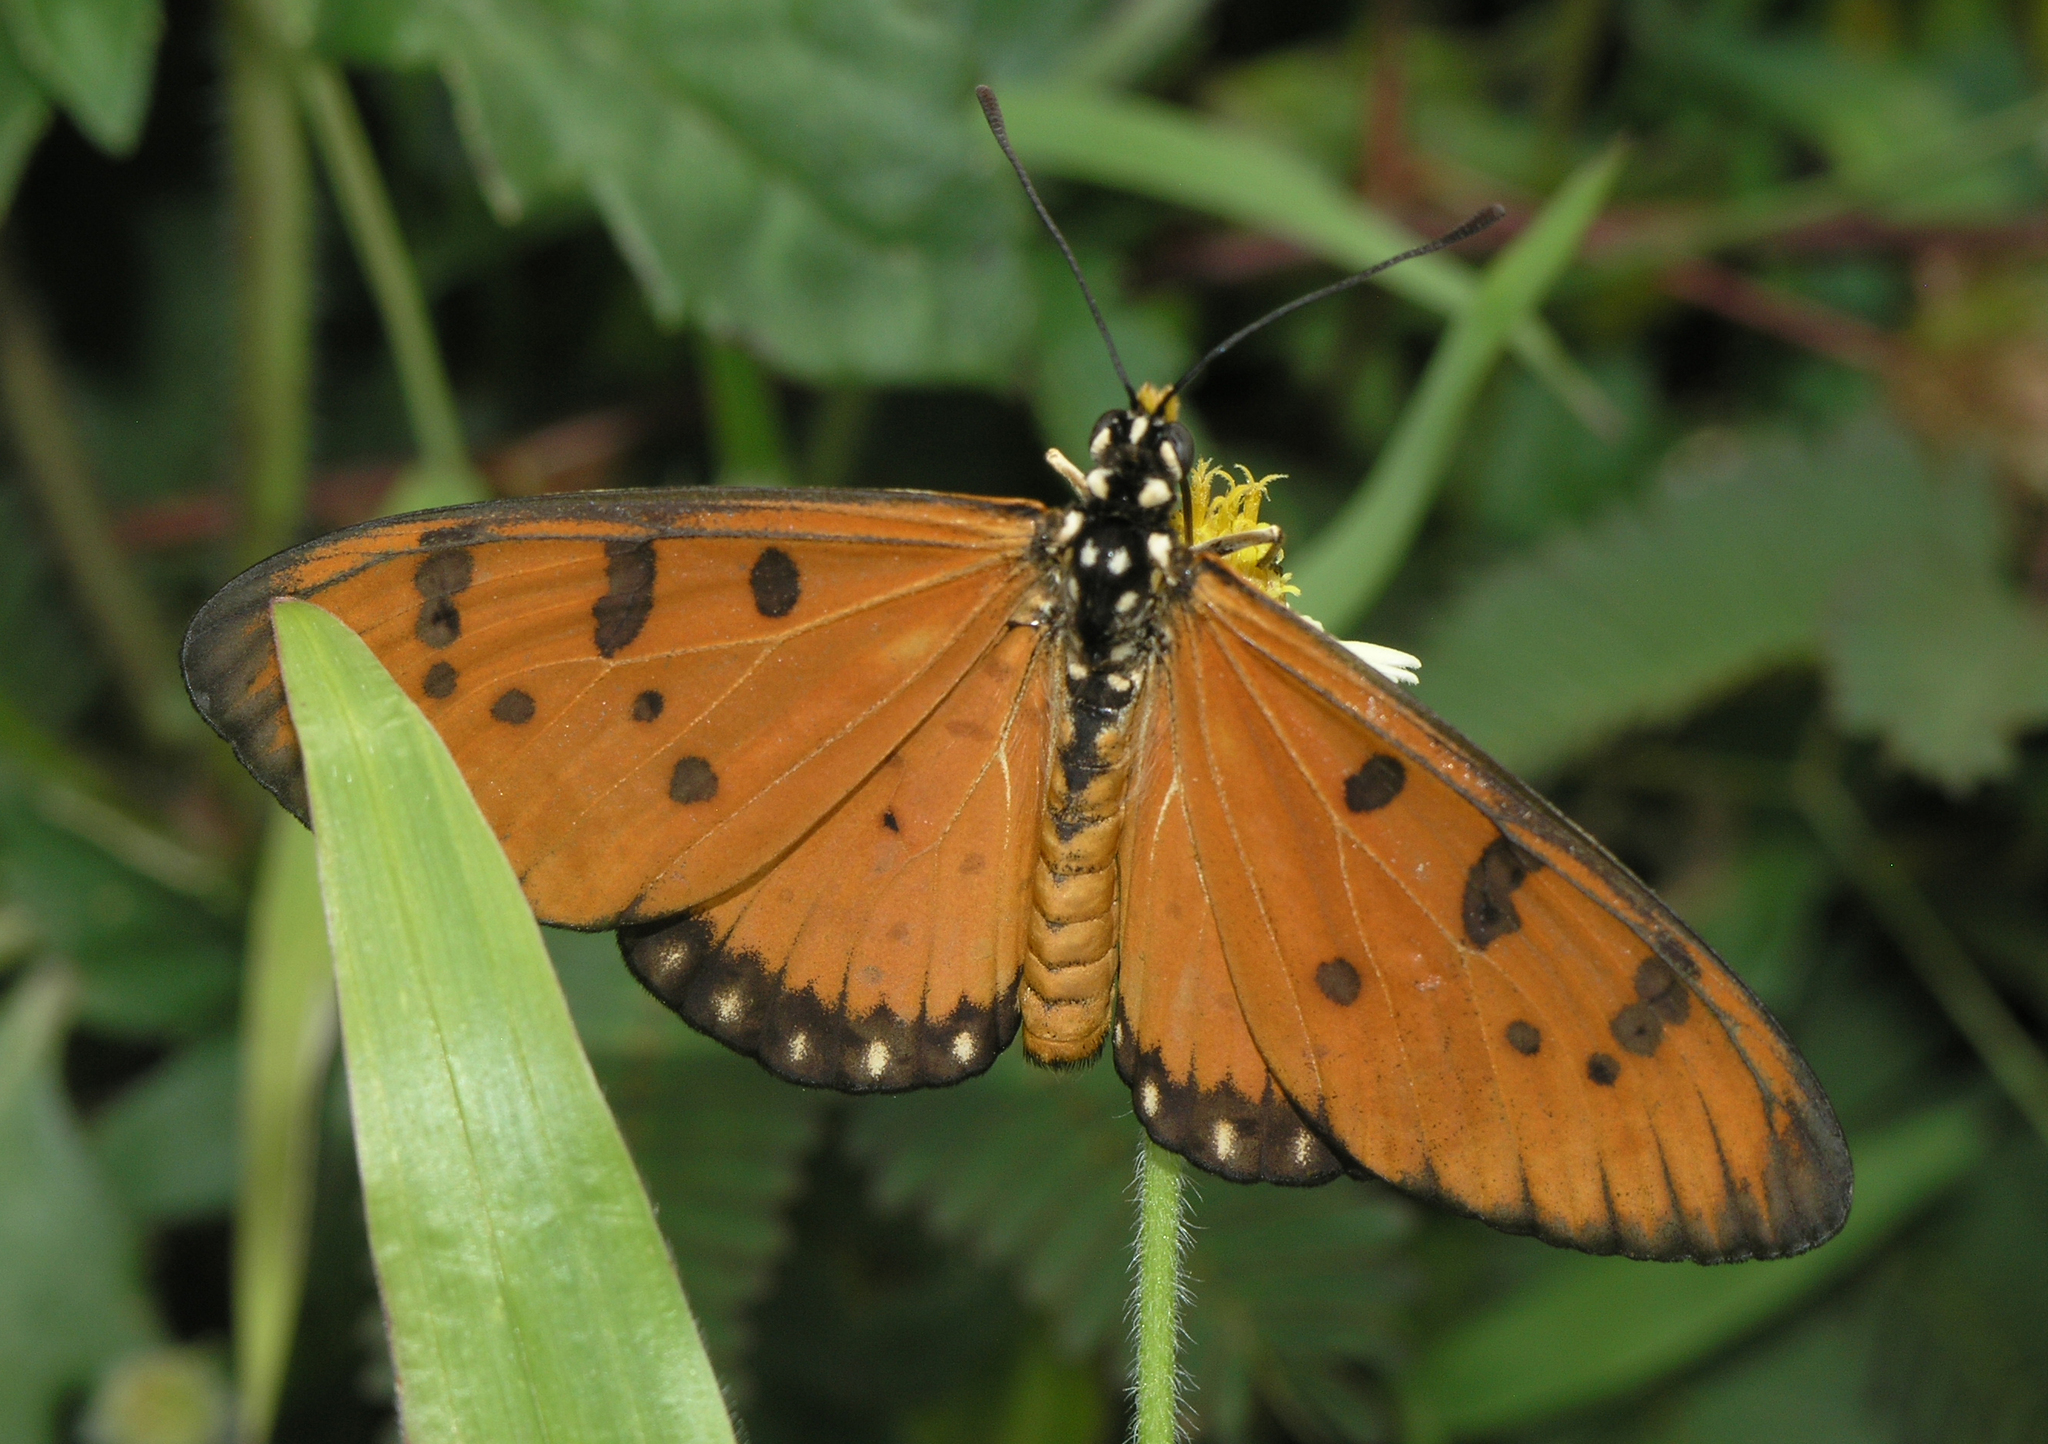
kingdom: Animalia
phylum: Arthropoda
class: Insecta
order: Lepidoptera
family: Nymphalidae
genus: Acraea
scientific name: Acraea terpsicore
